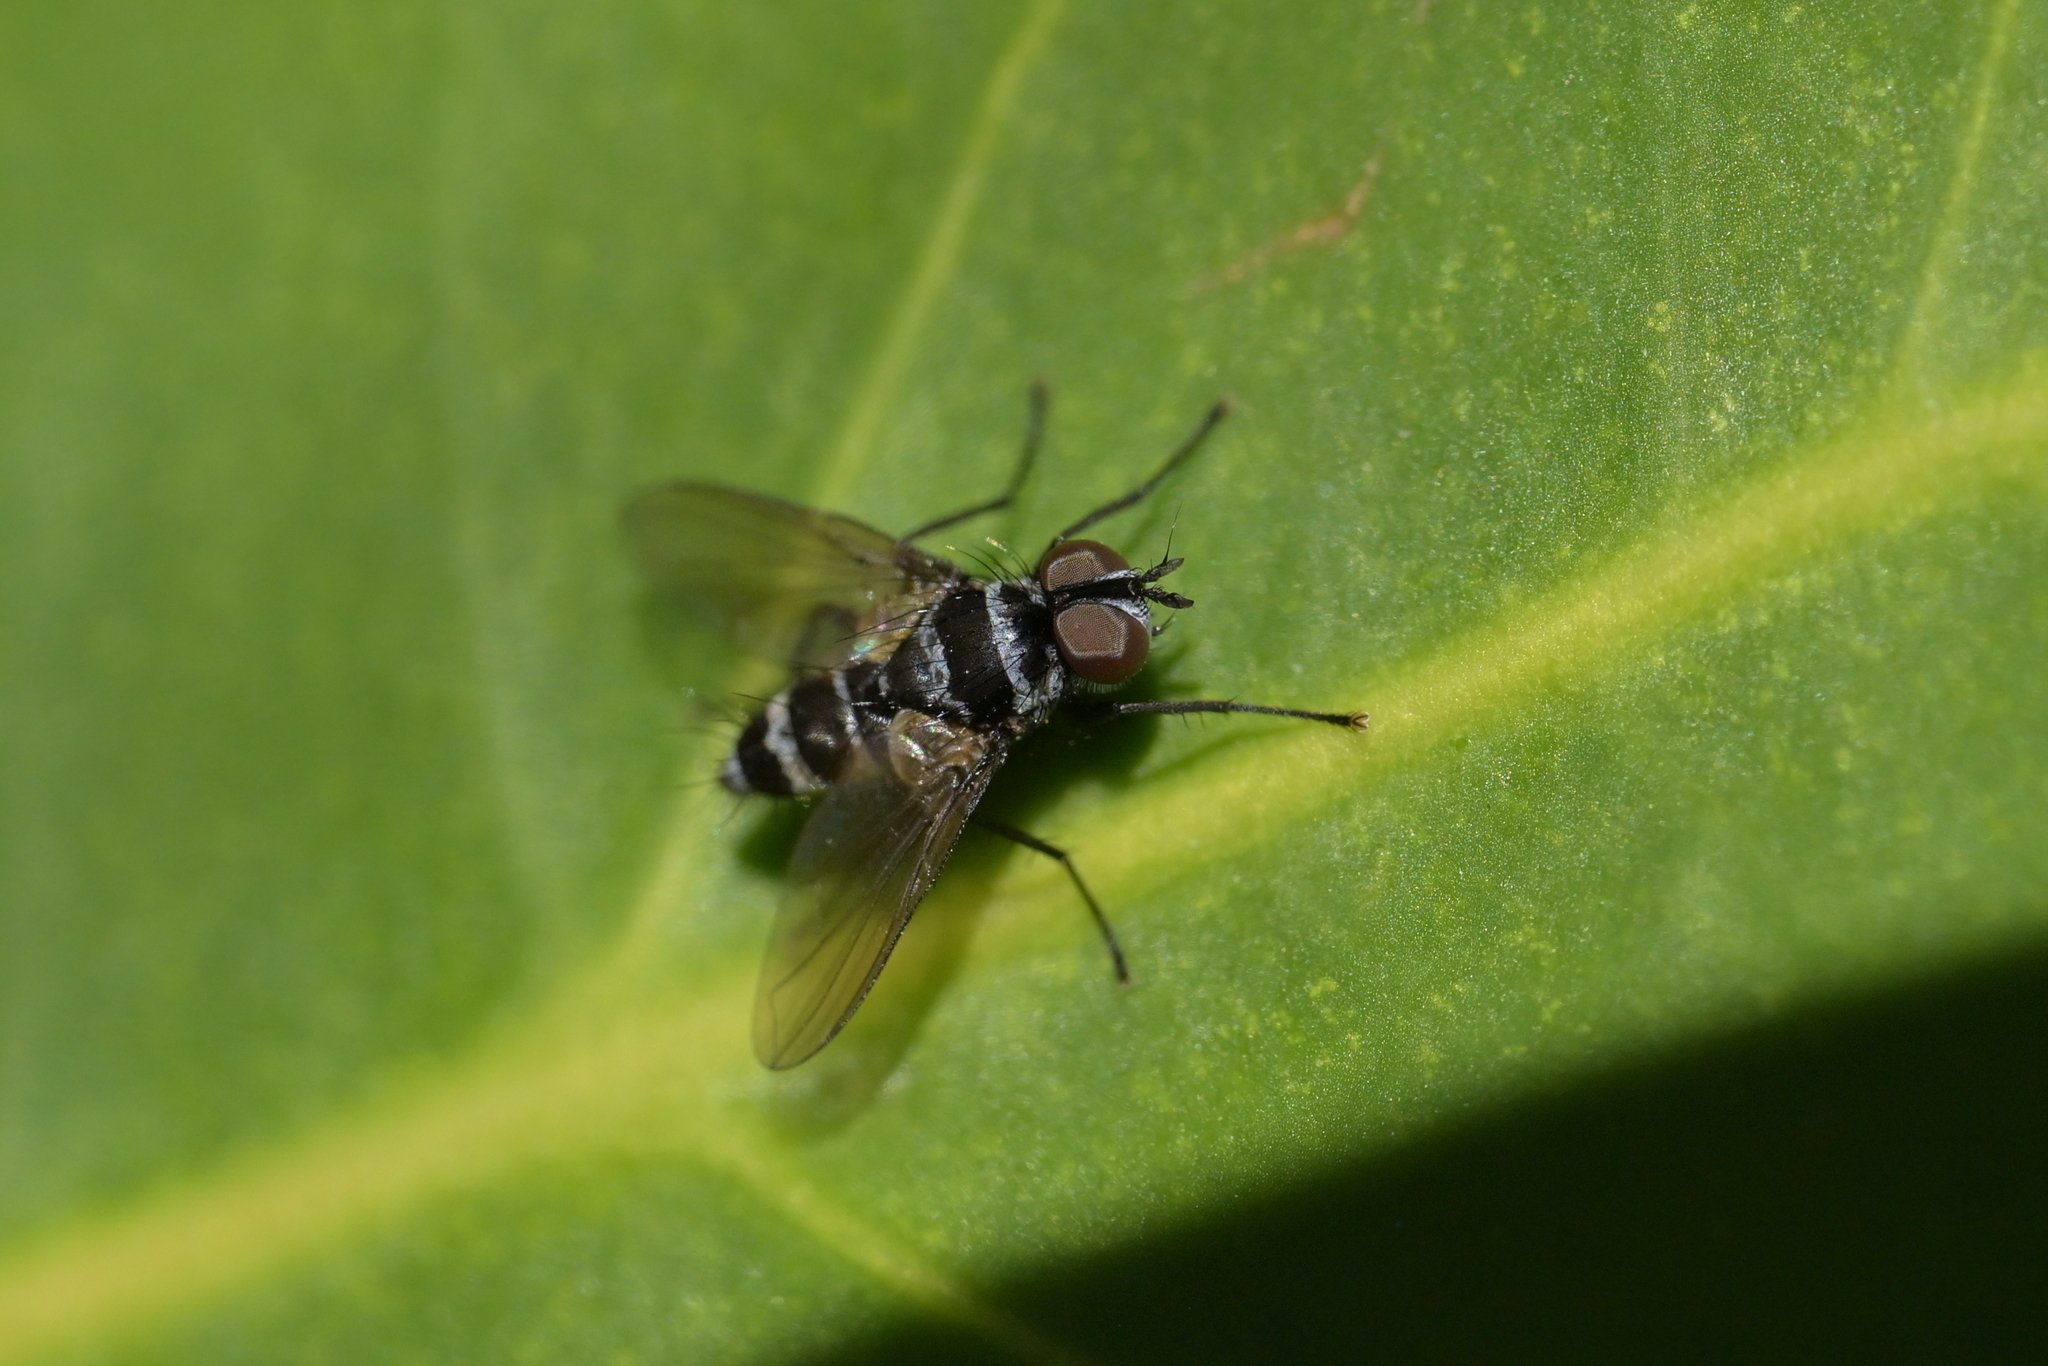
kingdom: Animalia
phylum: Arthropoda
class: Insecta
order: Diptera
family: Tachinidae
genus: Trigonospila
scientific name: Trigonospila brevifacies
